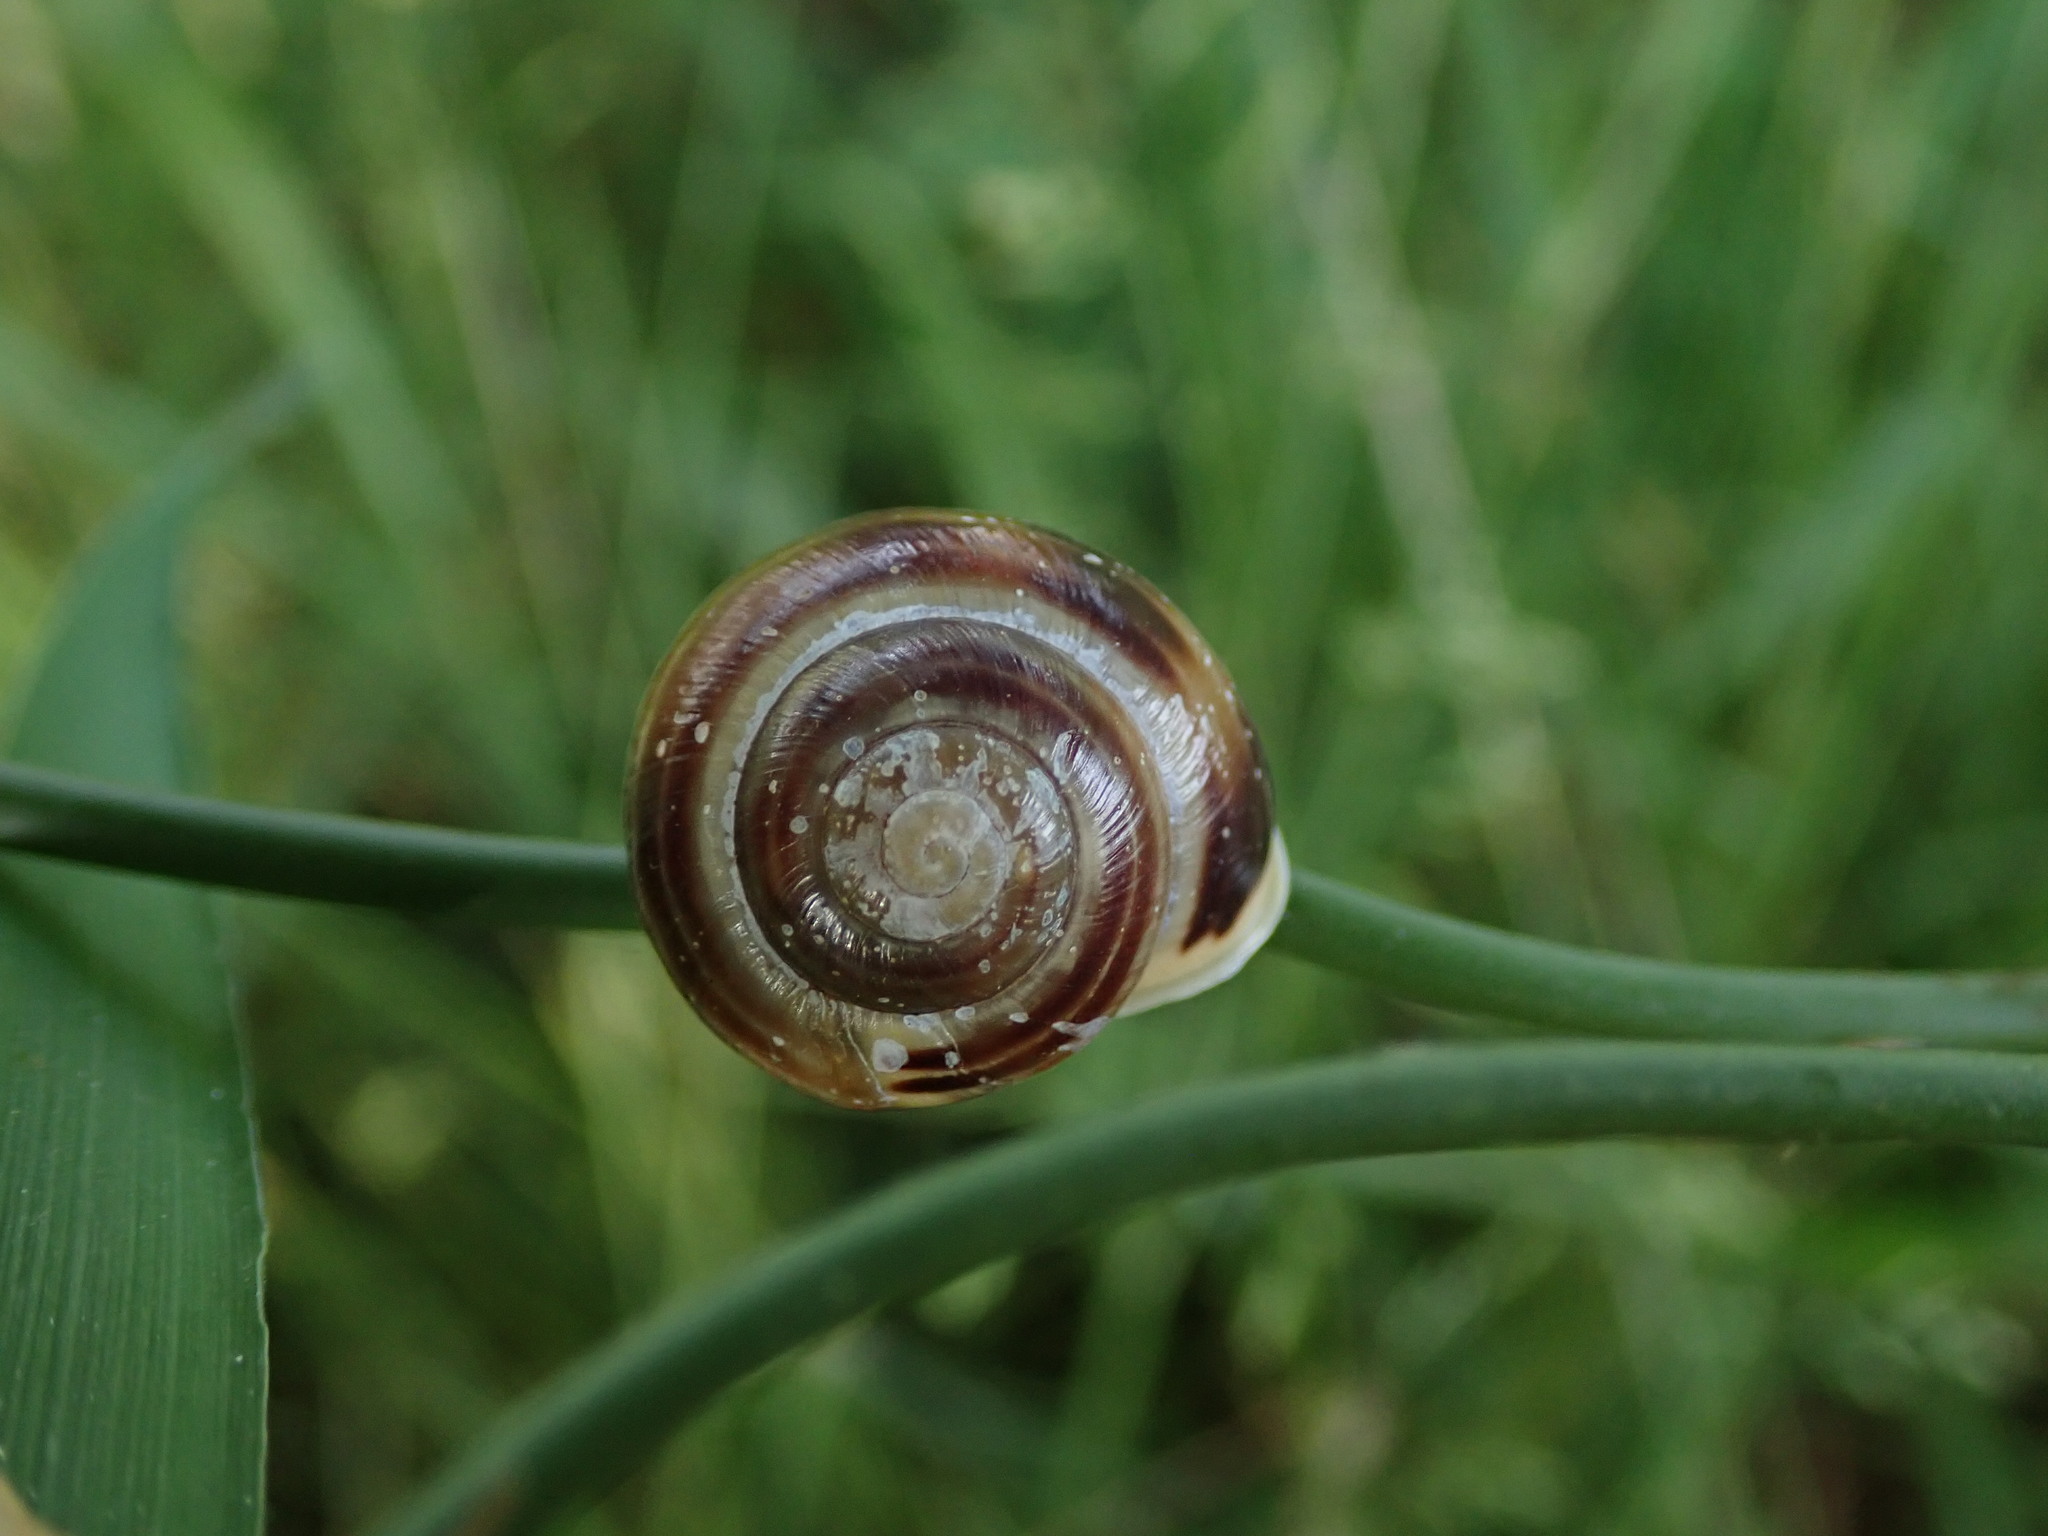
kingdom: Animalia
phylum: Mollusca
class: Gastropoda
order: Stylommatophora
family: Helicidae
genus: Cepaea
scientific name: Cepaea hortensis
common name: White-lip gardensnail
